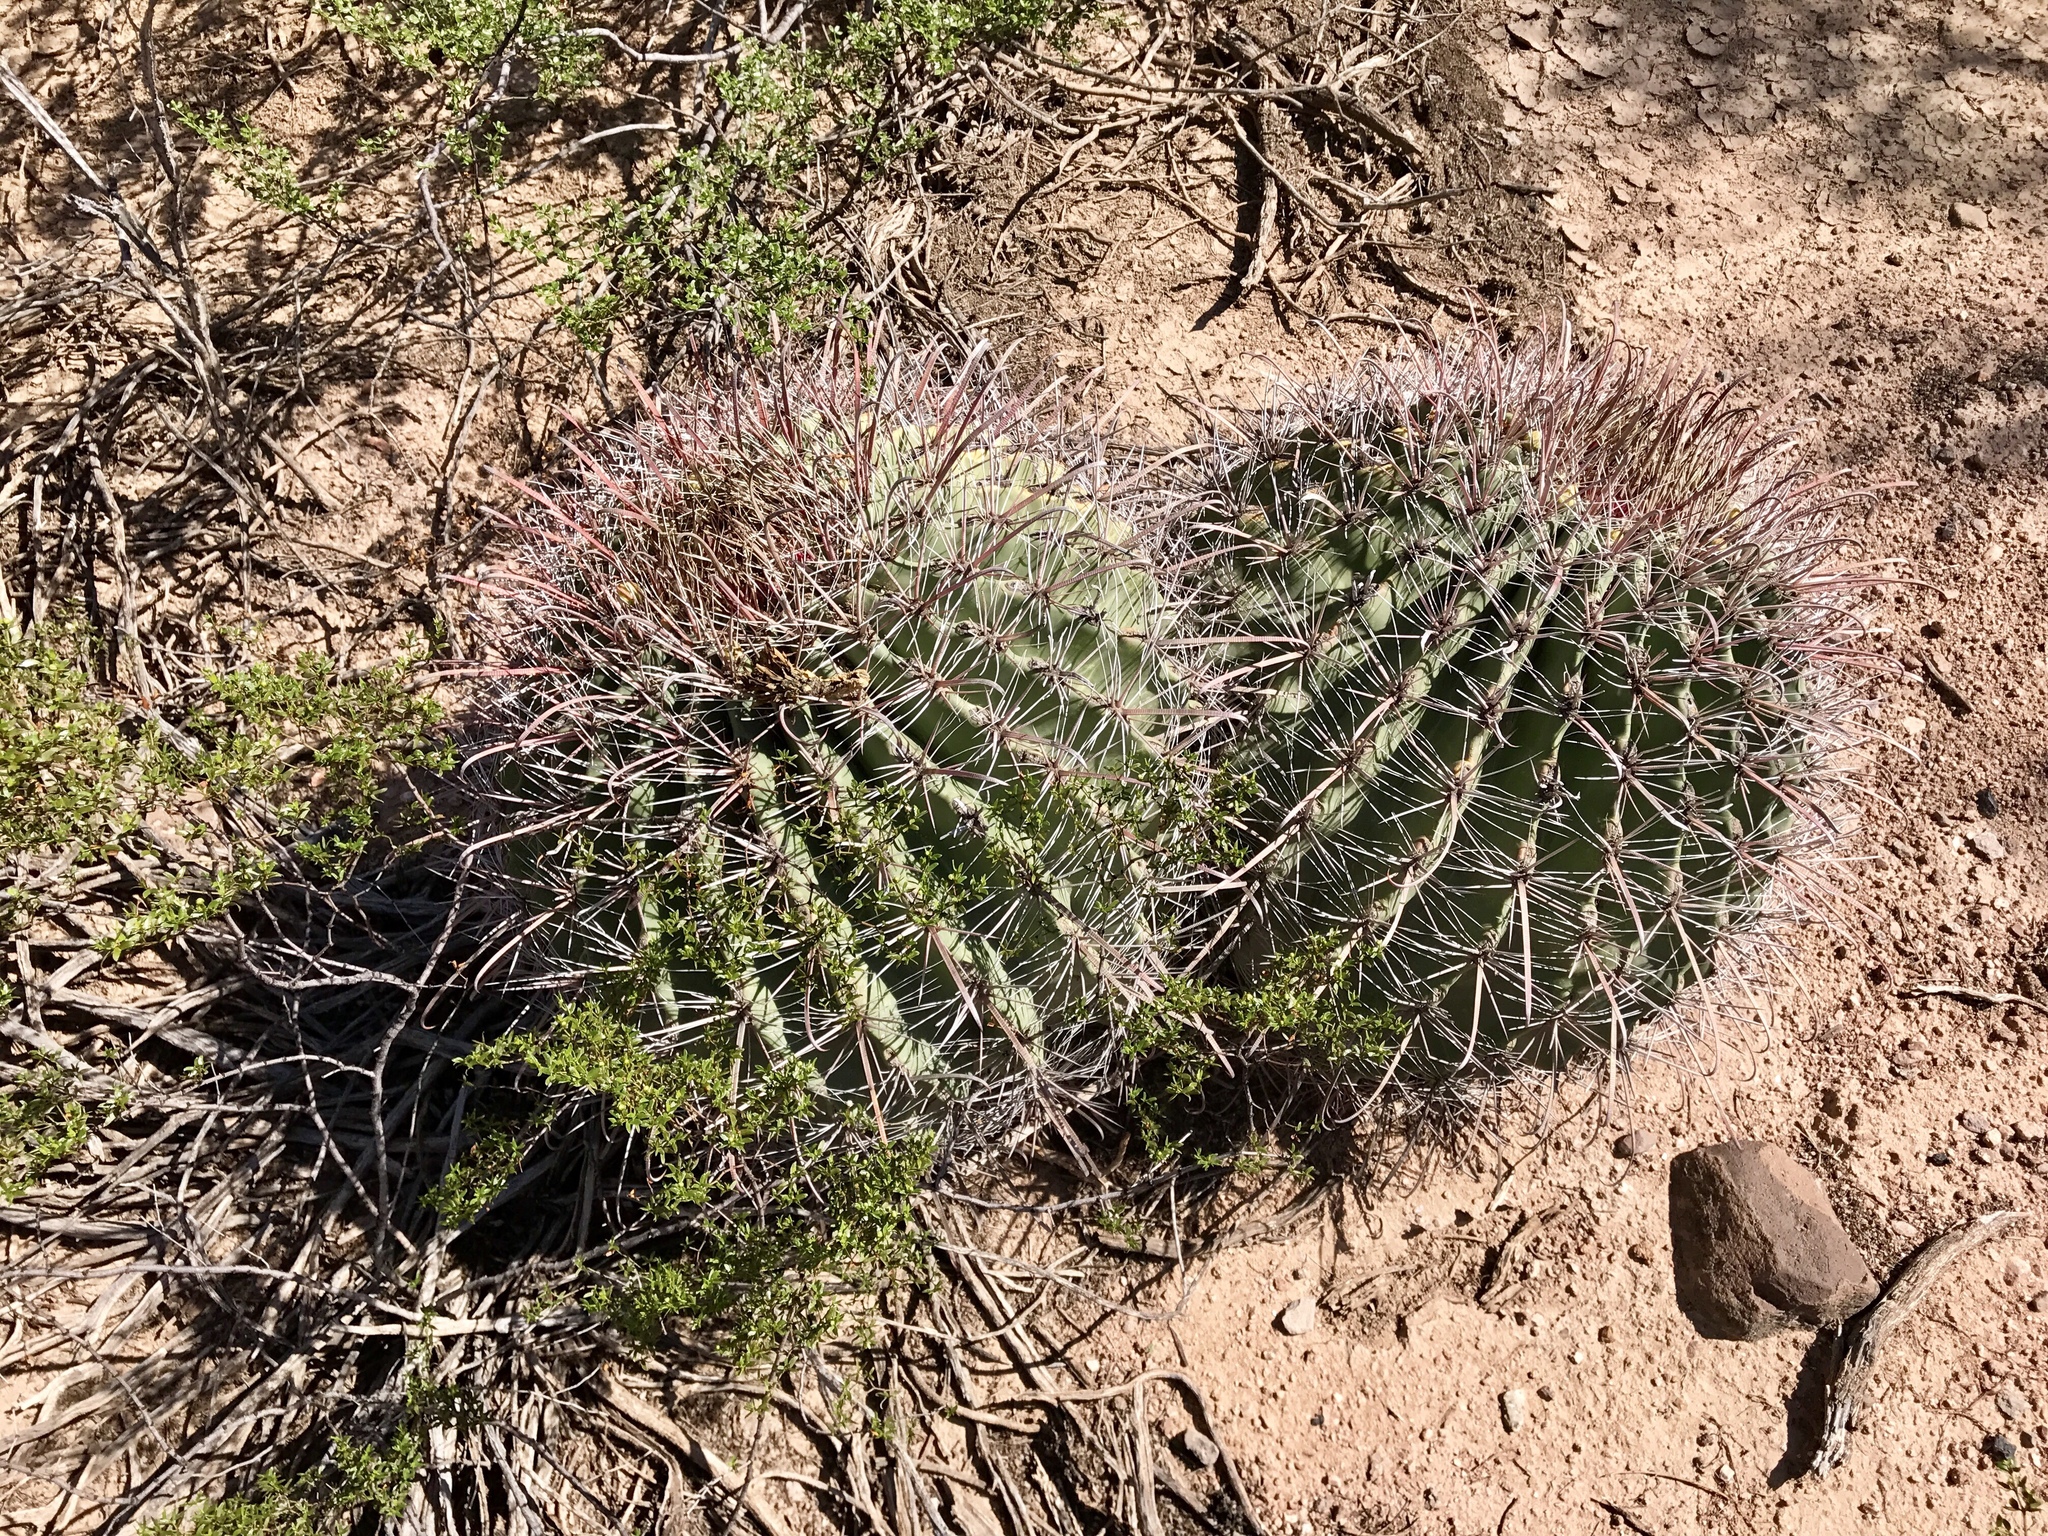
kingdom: Plantae
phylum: Tracheophyta
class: Magnoliopsida
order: Caryophyllales
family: Cactaceae
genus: Ferocactus
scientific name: Ferocactus wislizeni
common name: Candy barrel cactus
